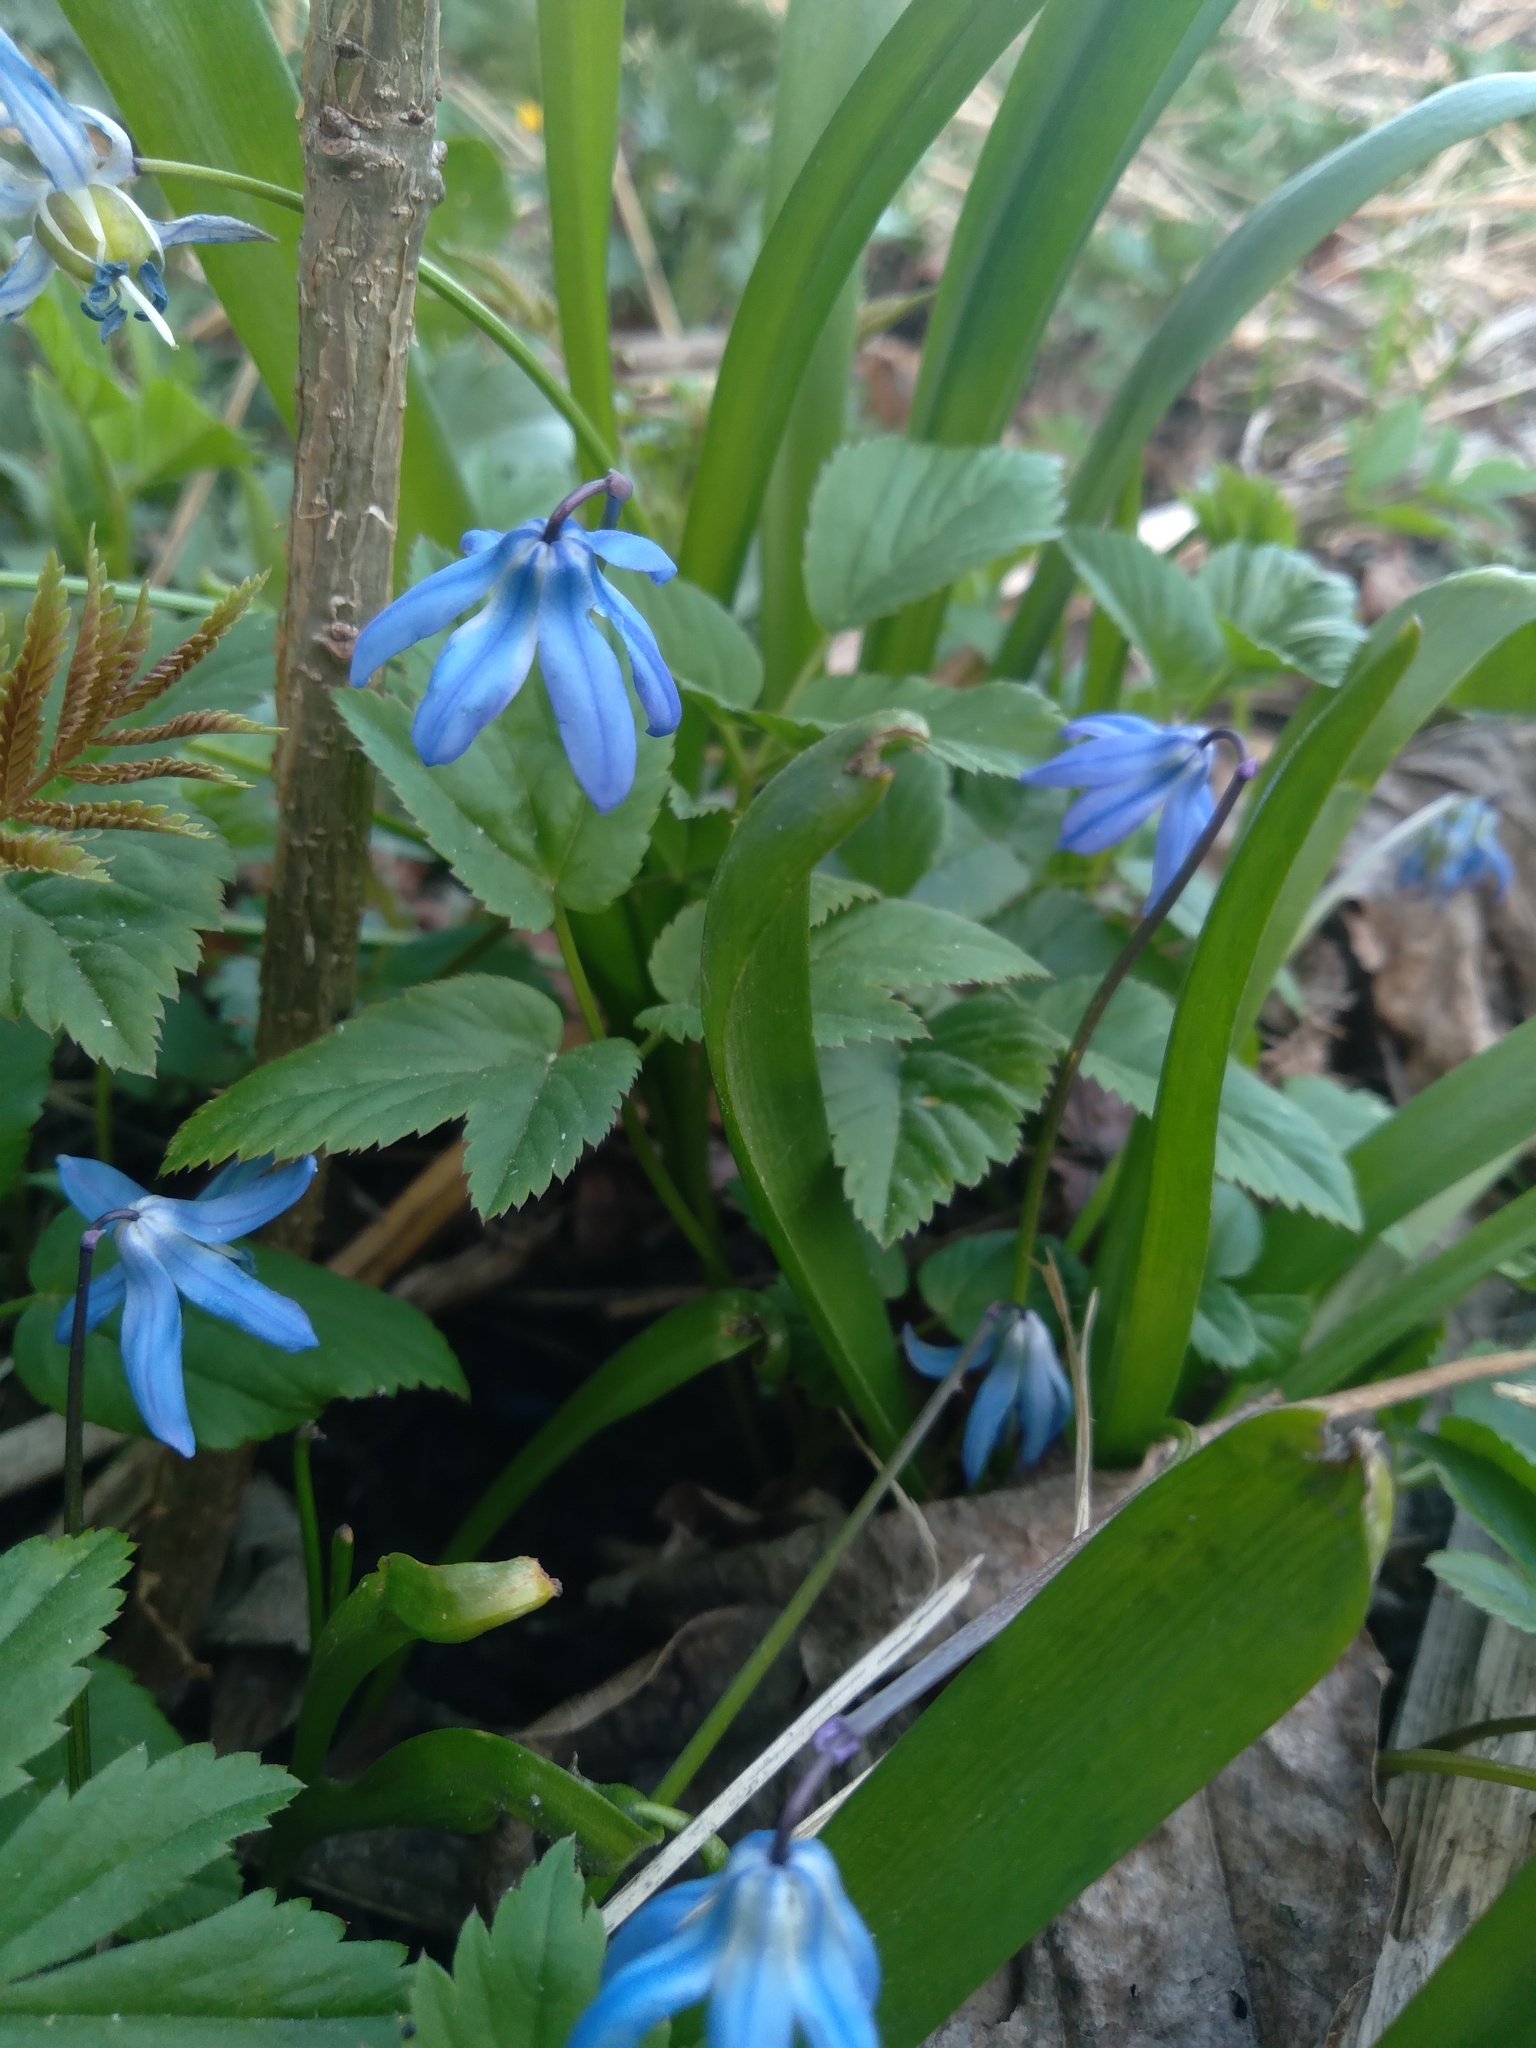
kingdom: Plantae
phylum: Tracheophyta
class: Liliopsida
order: Asparagales
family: Asparagaceae
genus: Scilla
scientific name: Scilla siberica
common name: Siberian squill
